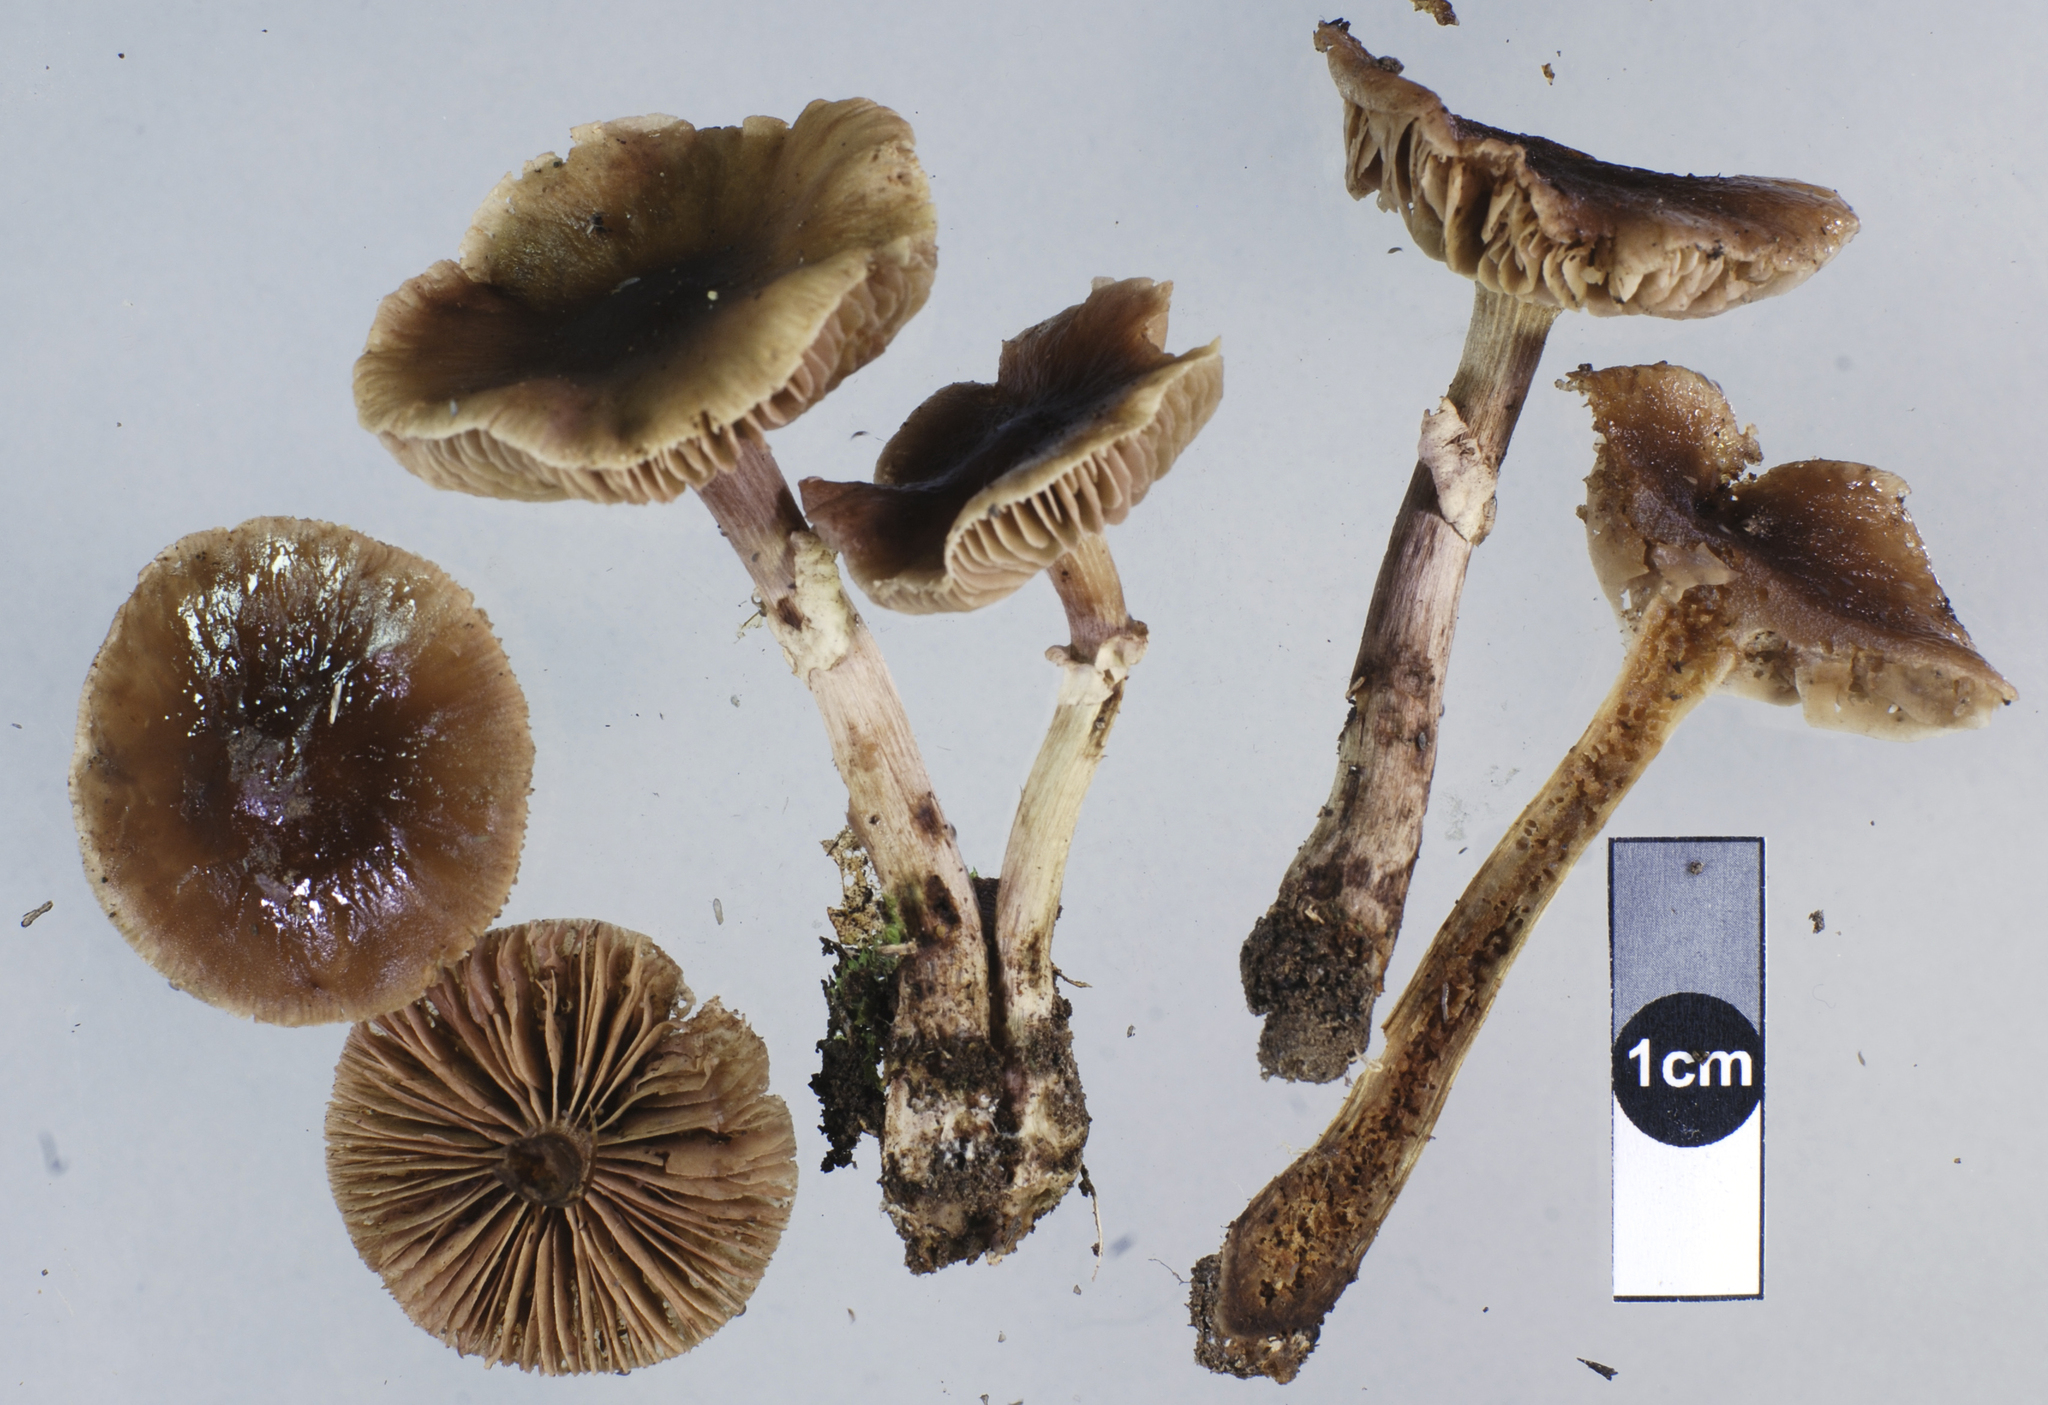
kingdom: Fungi
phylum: Basidiomycota
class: Agaricomycetes
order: Agaricales
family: Tubariaceae
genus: Cyclocybe
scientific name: Cyclocybe erebia
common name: Dark fieldcap
